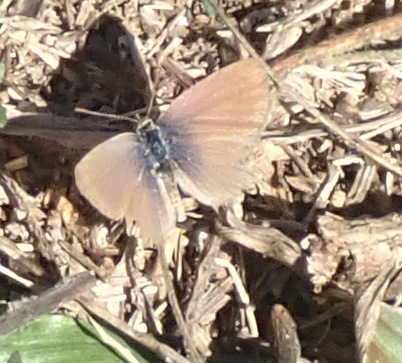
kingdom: Animalia
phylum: Arthropoda
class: Insecta
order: Lepidoptera
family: Lycaenidae
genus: Zizeeria
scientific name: Zizeeria knysna
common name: African grass blue
